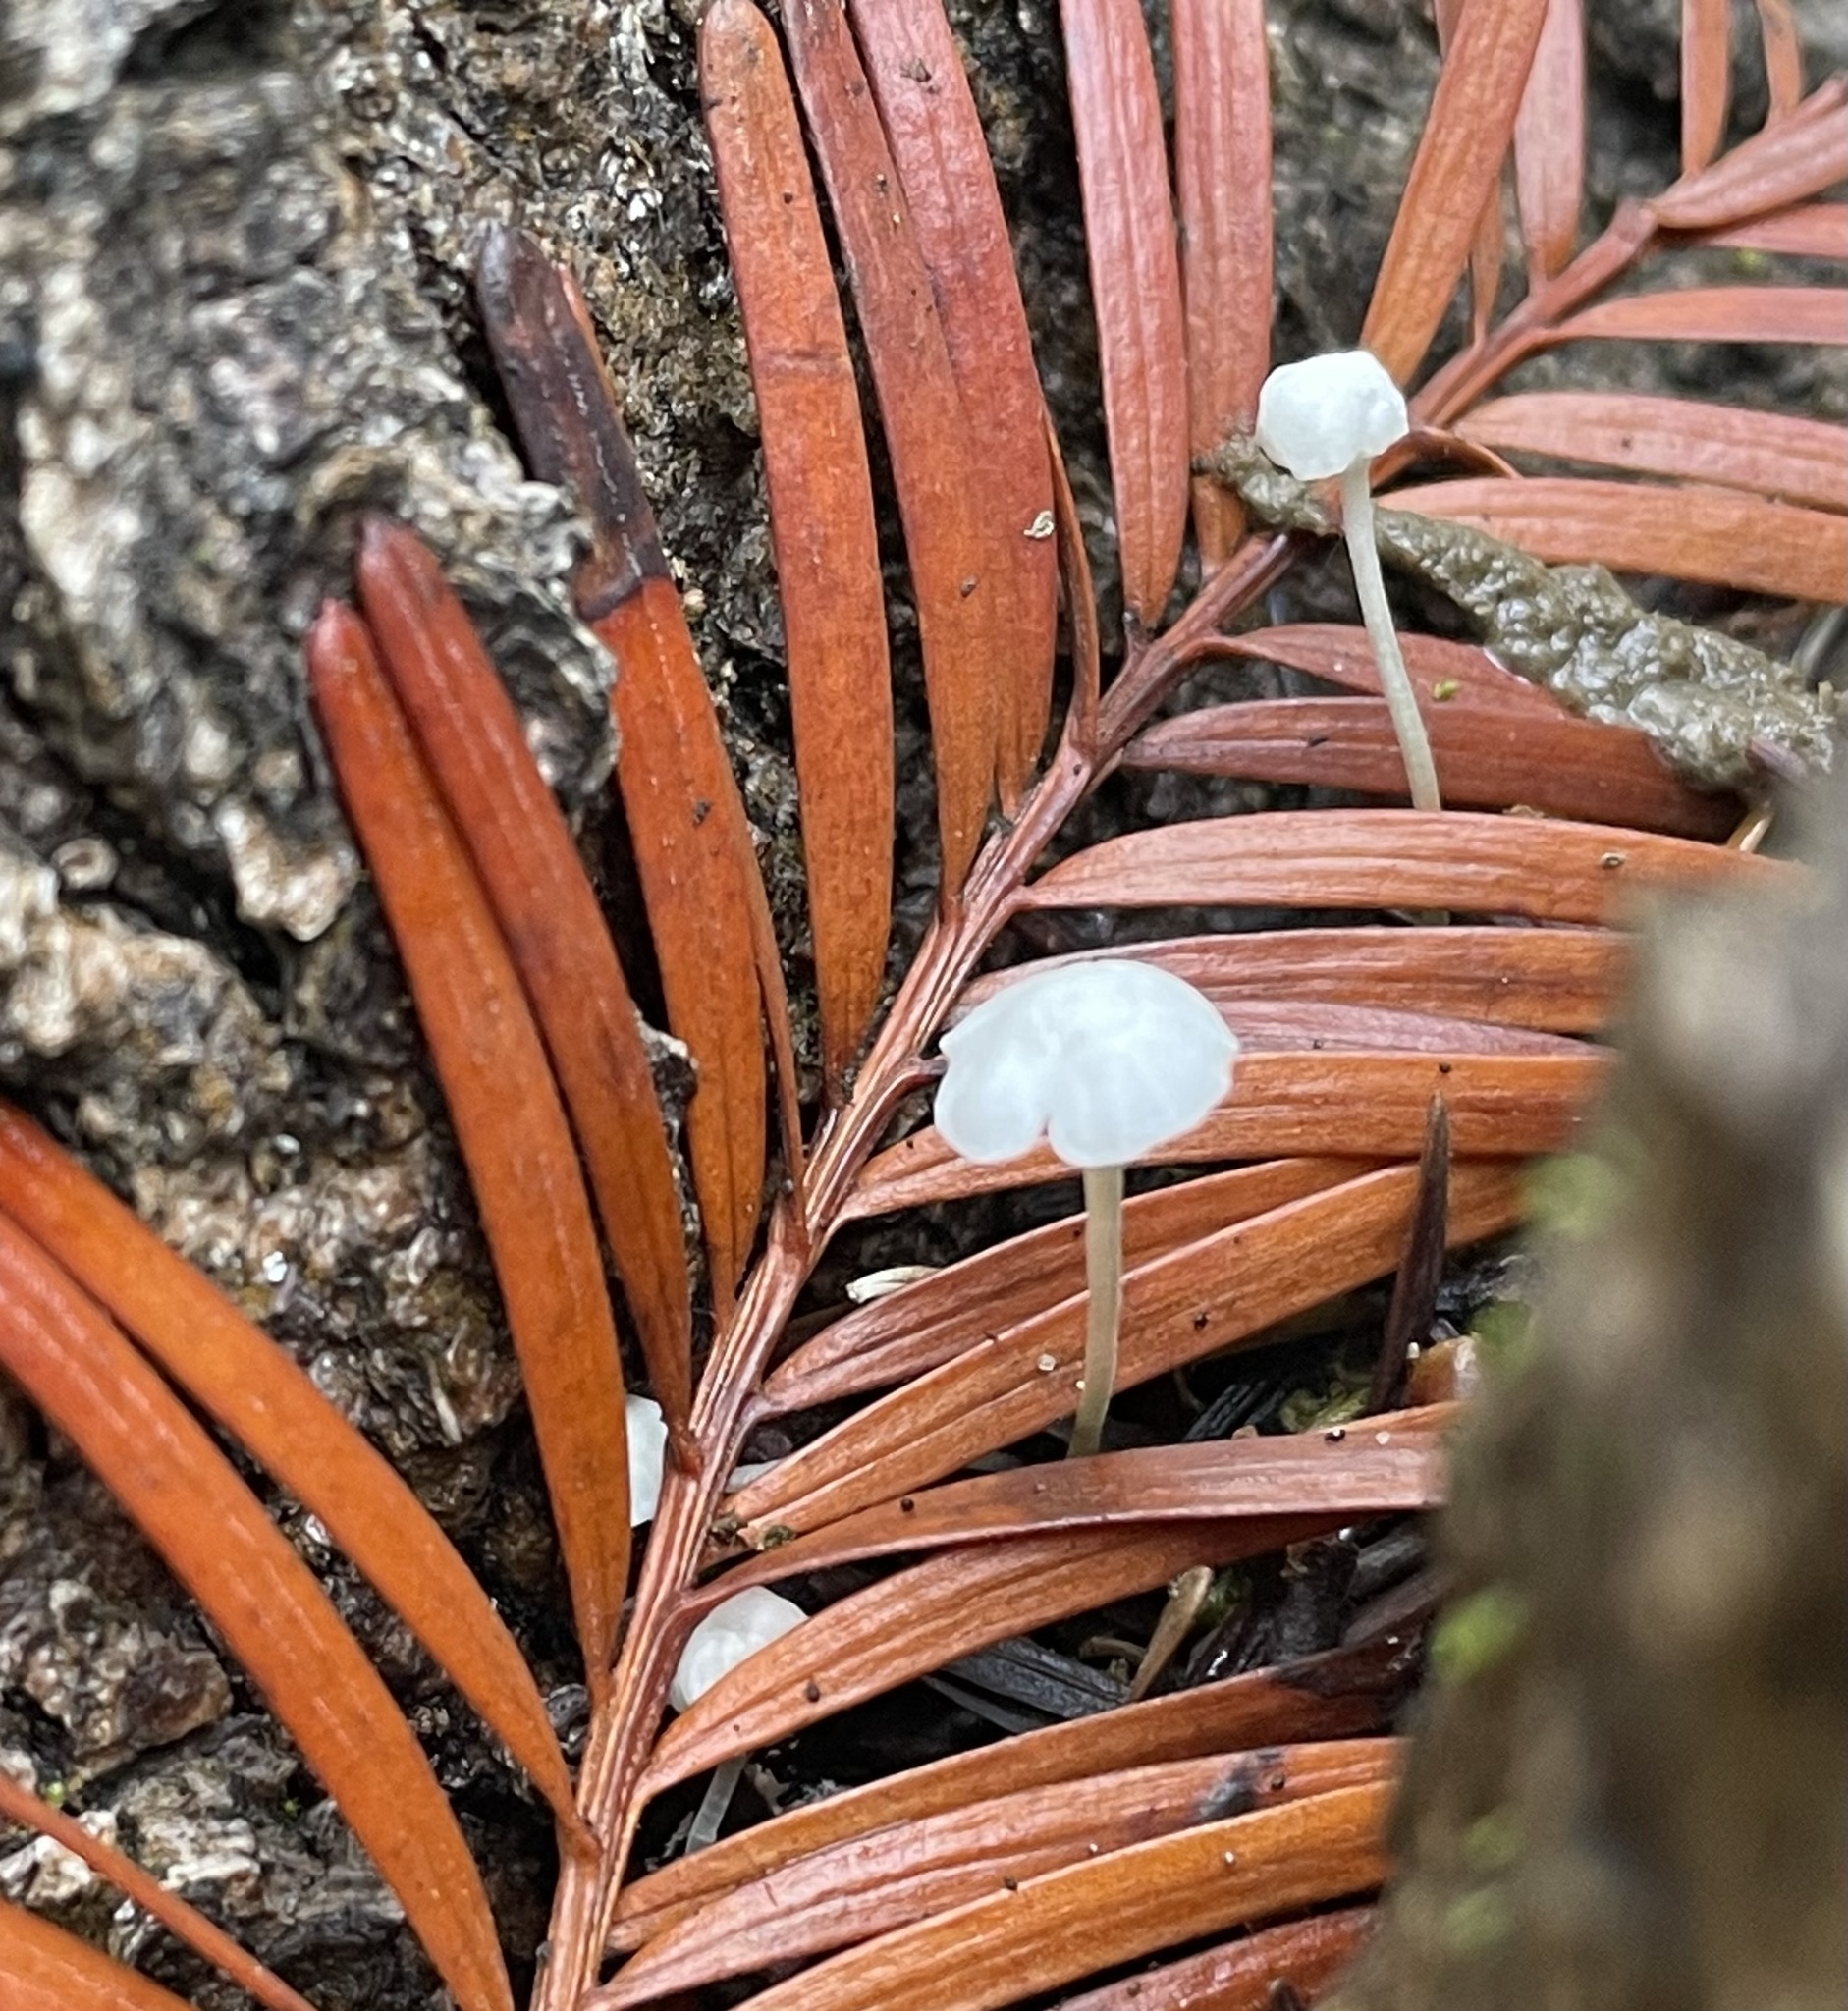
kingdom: Fungi
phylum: Basidiomycota
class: Agaricomycetes
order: Agaricales
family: Mycenaceae
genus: Roridomyces
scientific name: Roridomyces roridus
